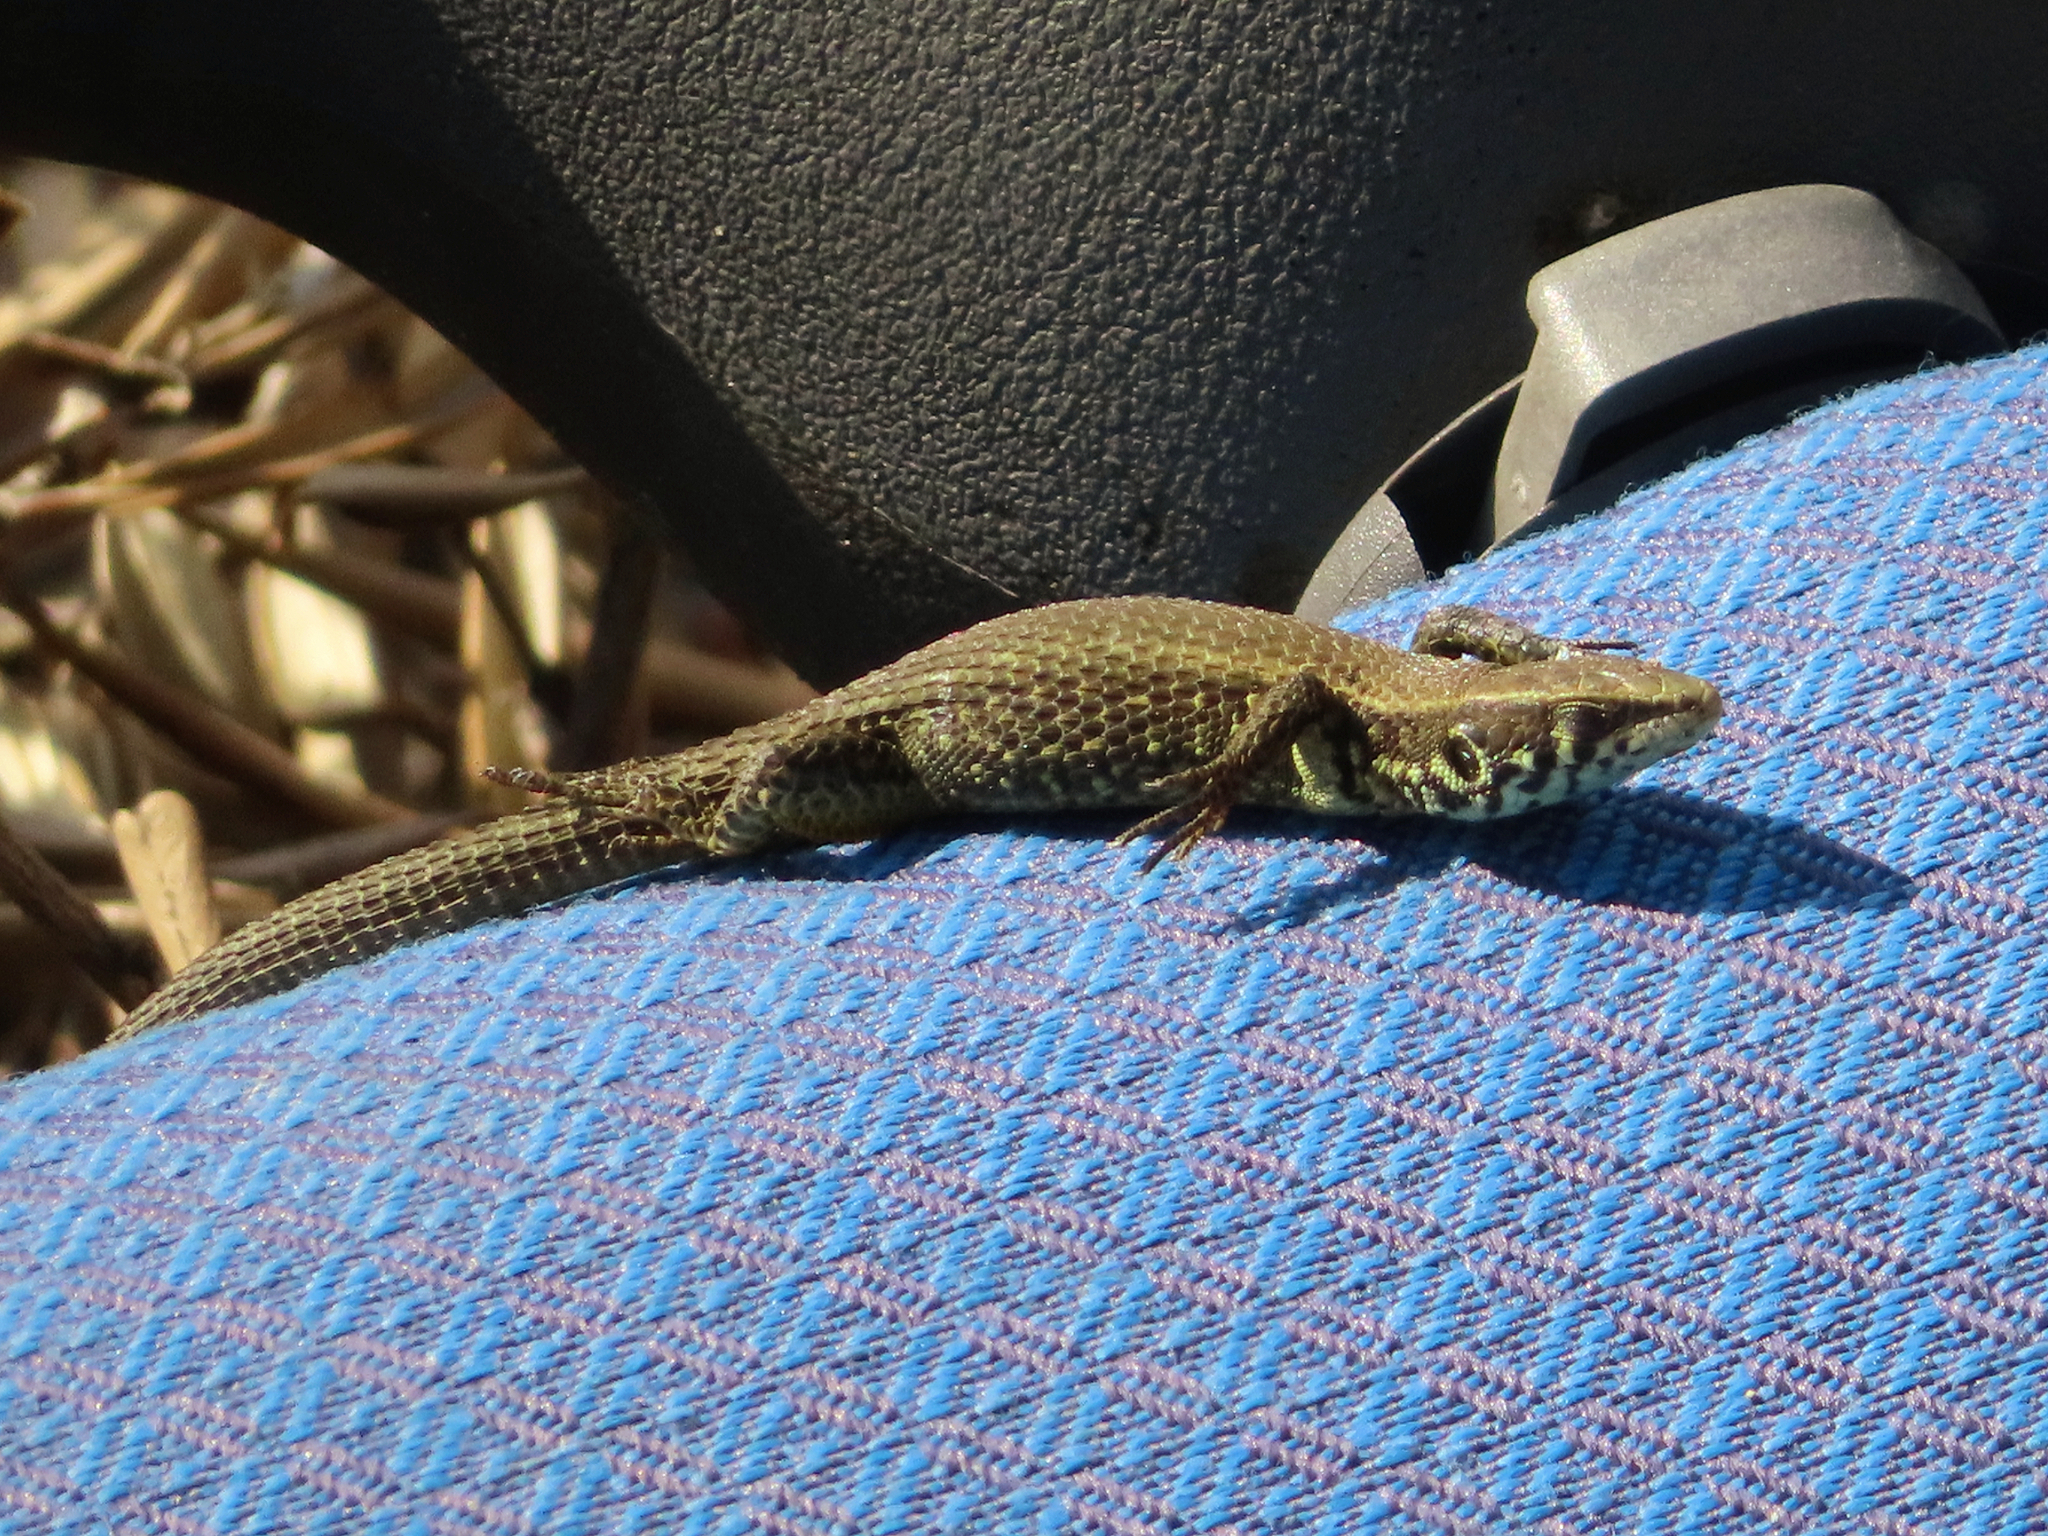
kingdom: Animalia
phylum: Chordata
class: Squamata
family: Lacertidae
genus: Algyroides
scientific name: Algyroides moreoticus
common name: Greek algyroides
